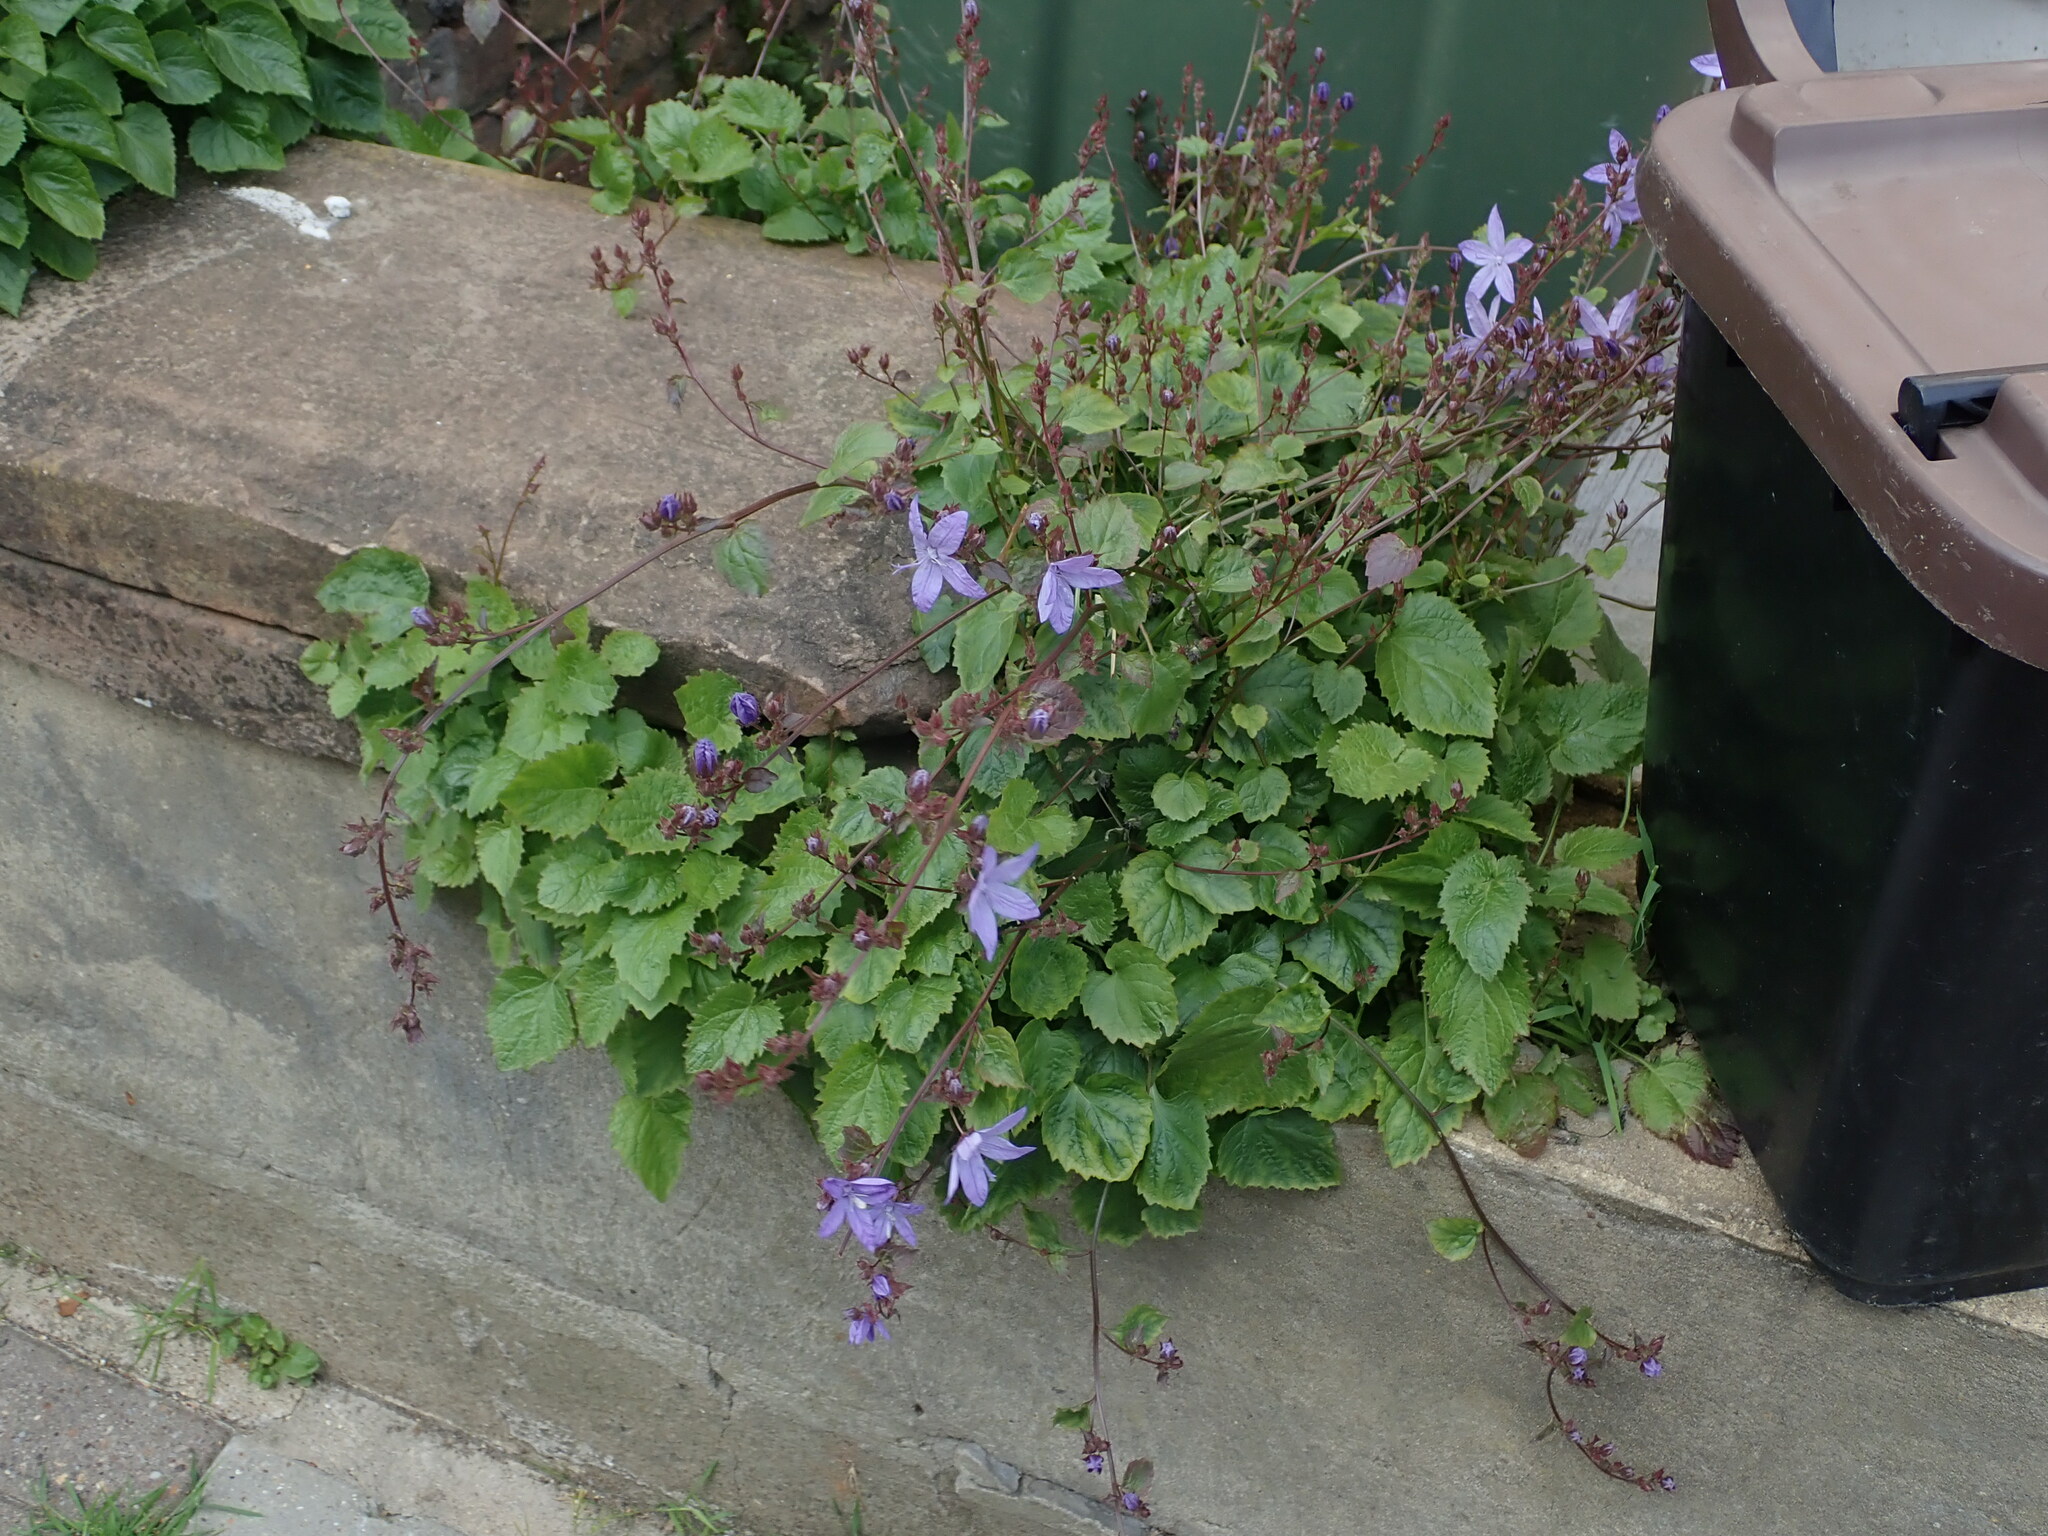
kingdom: Plantae
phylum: Tracheophyta
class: Magnoliopsida
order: Asterales
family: Campanulaceae
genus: Campanula
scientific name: Campanula poscharskyana
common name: Trailing bellflower
